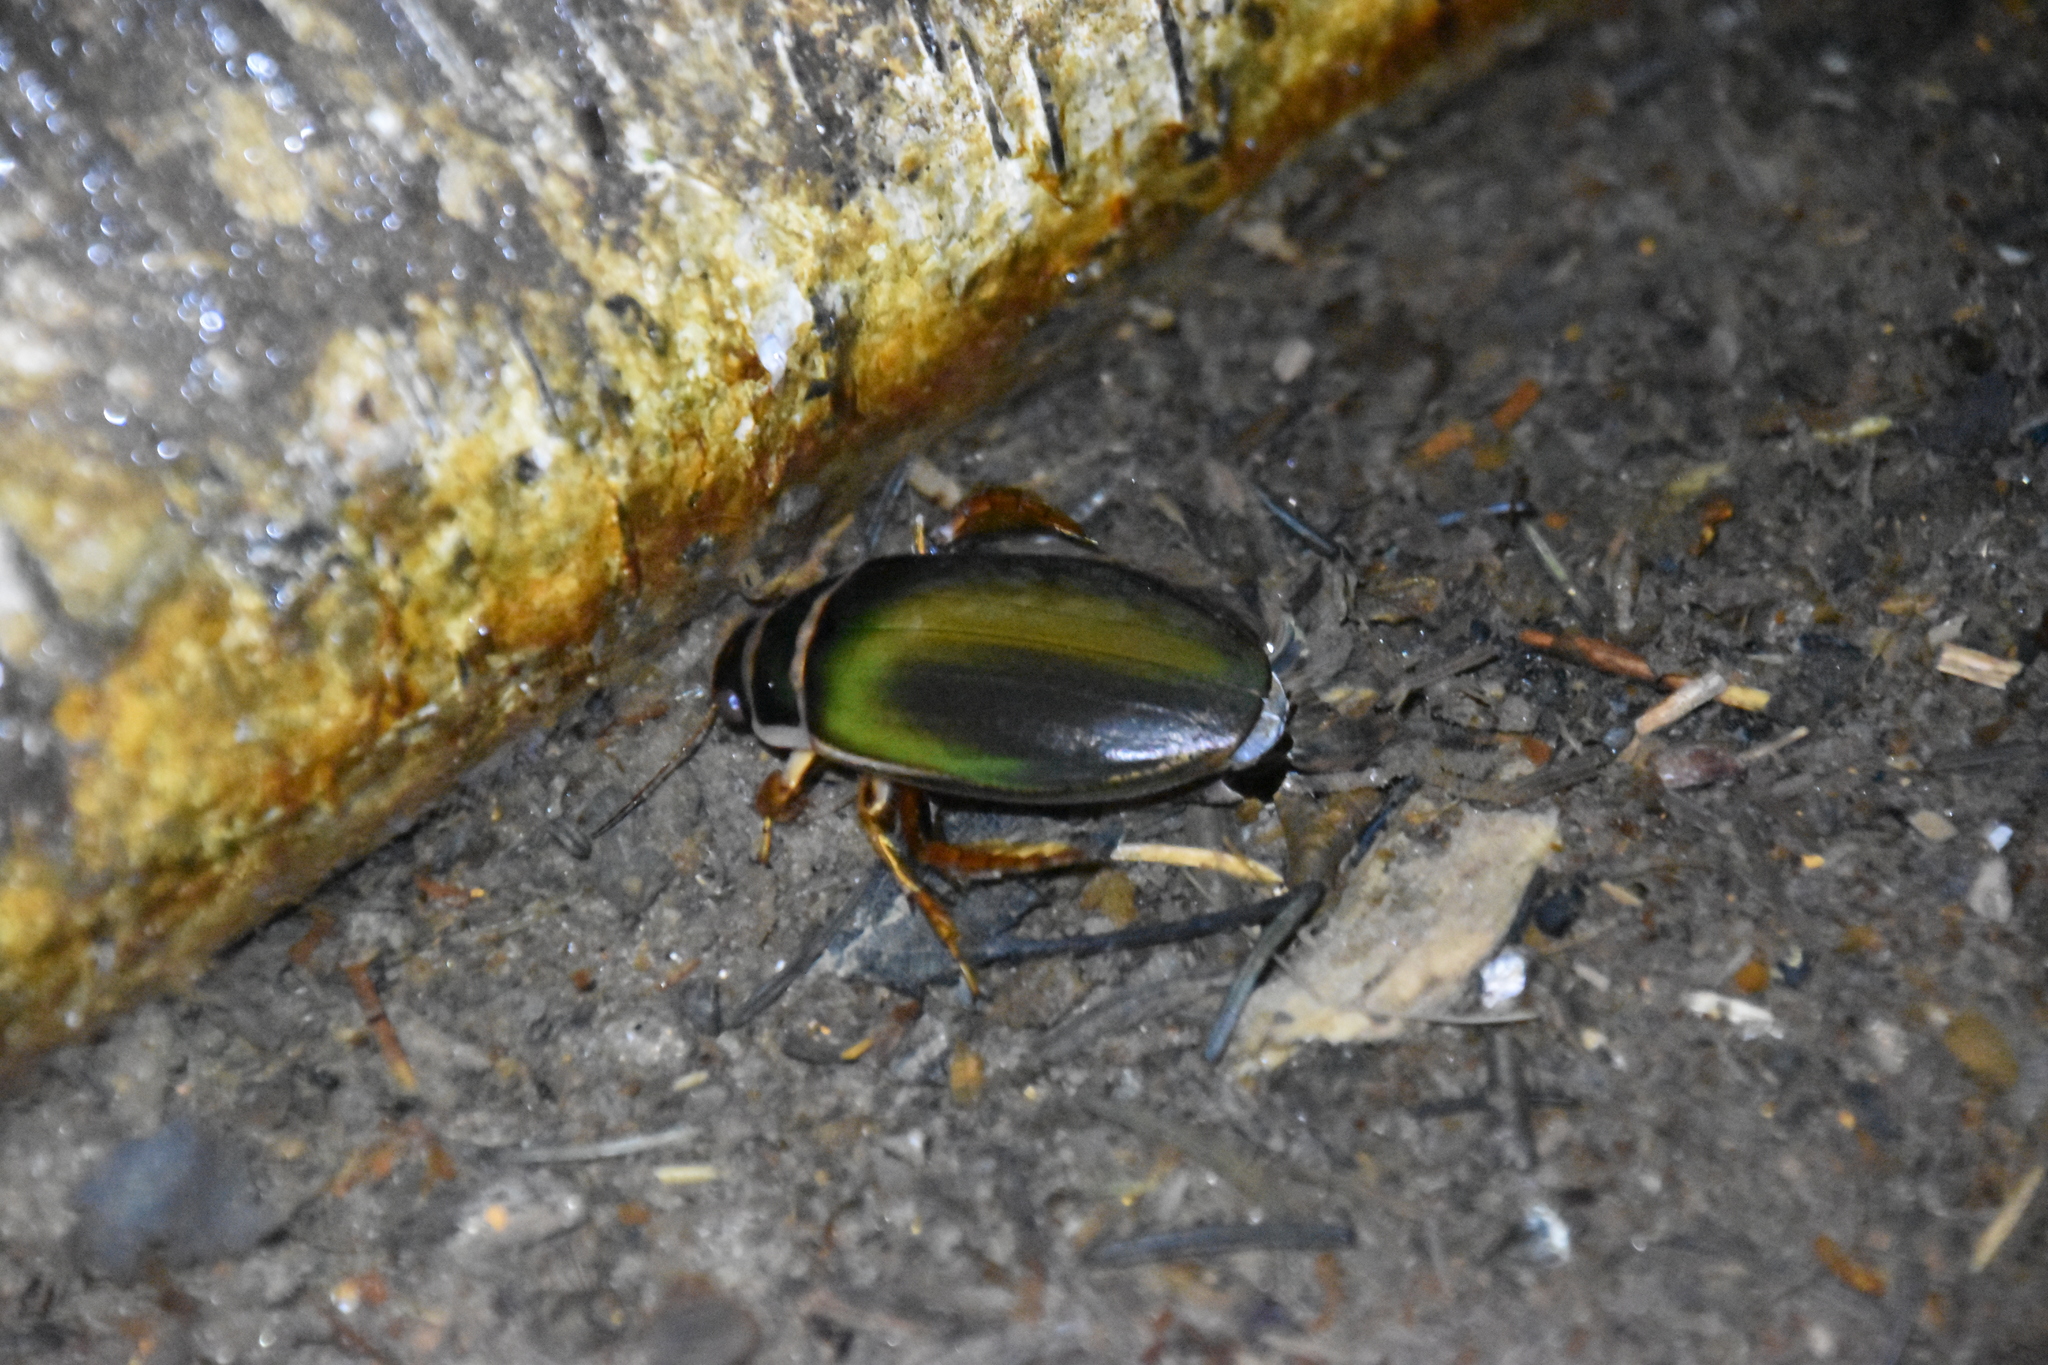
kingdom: Animalia
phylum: Arthropoda
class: Insecta
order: Coleoptera
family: Dytiscidae
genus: Dytiscus
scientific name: Dytiscus marginalis
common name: Great water beetle
